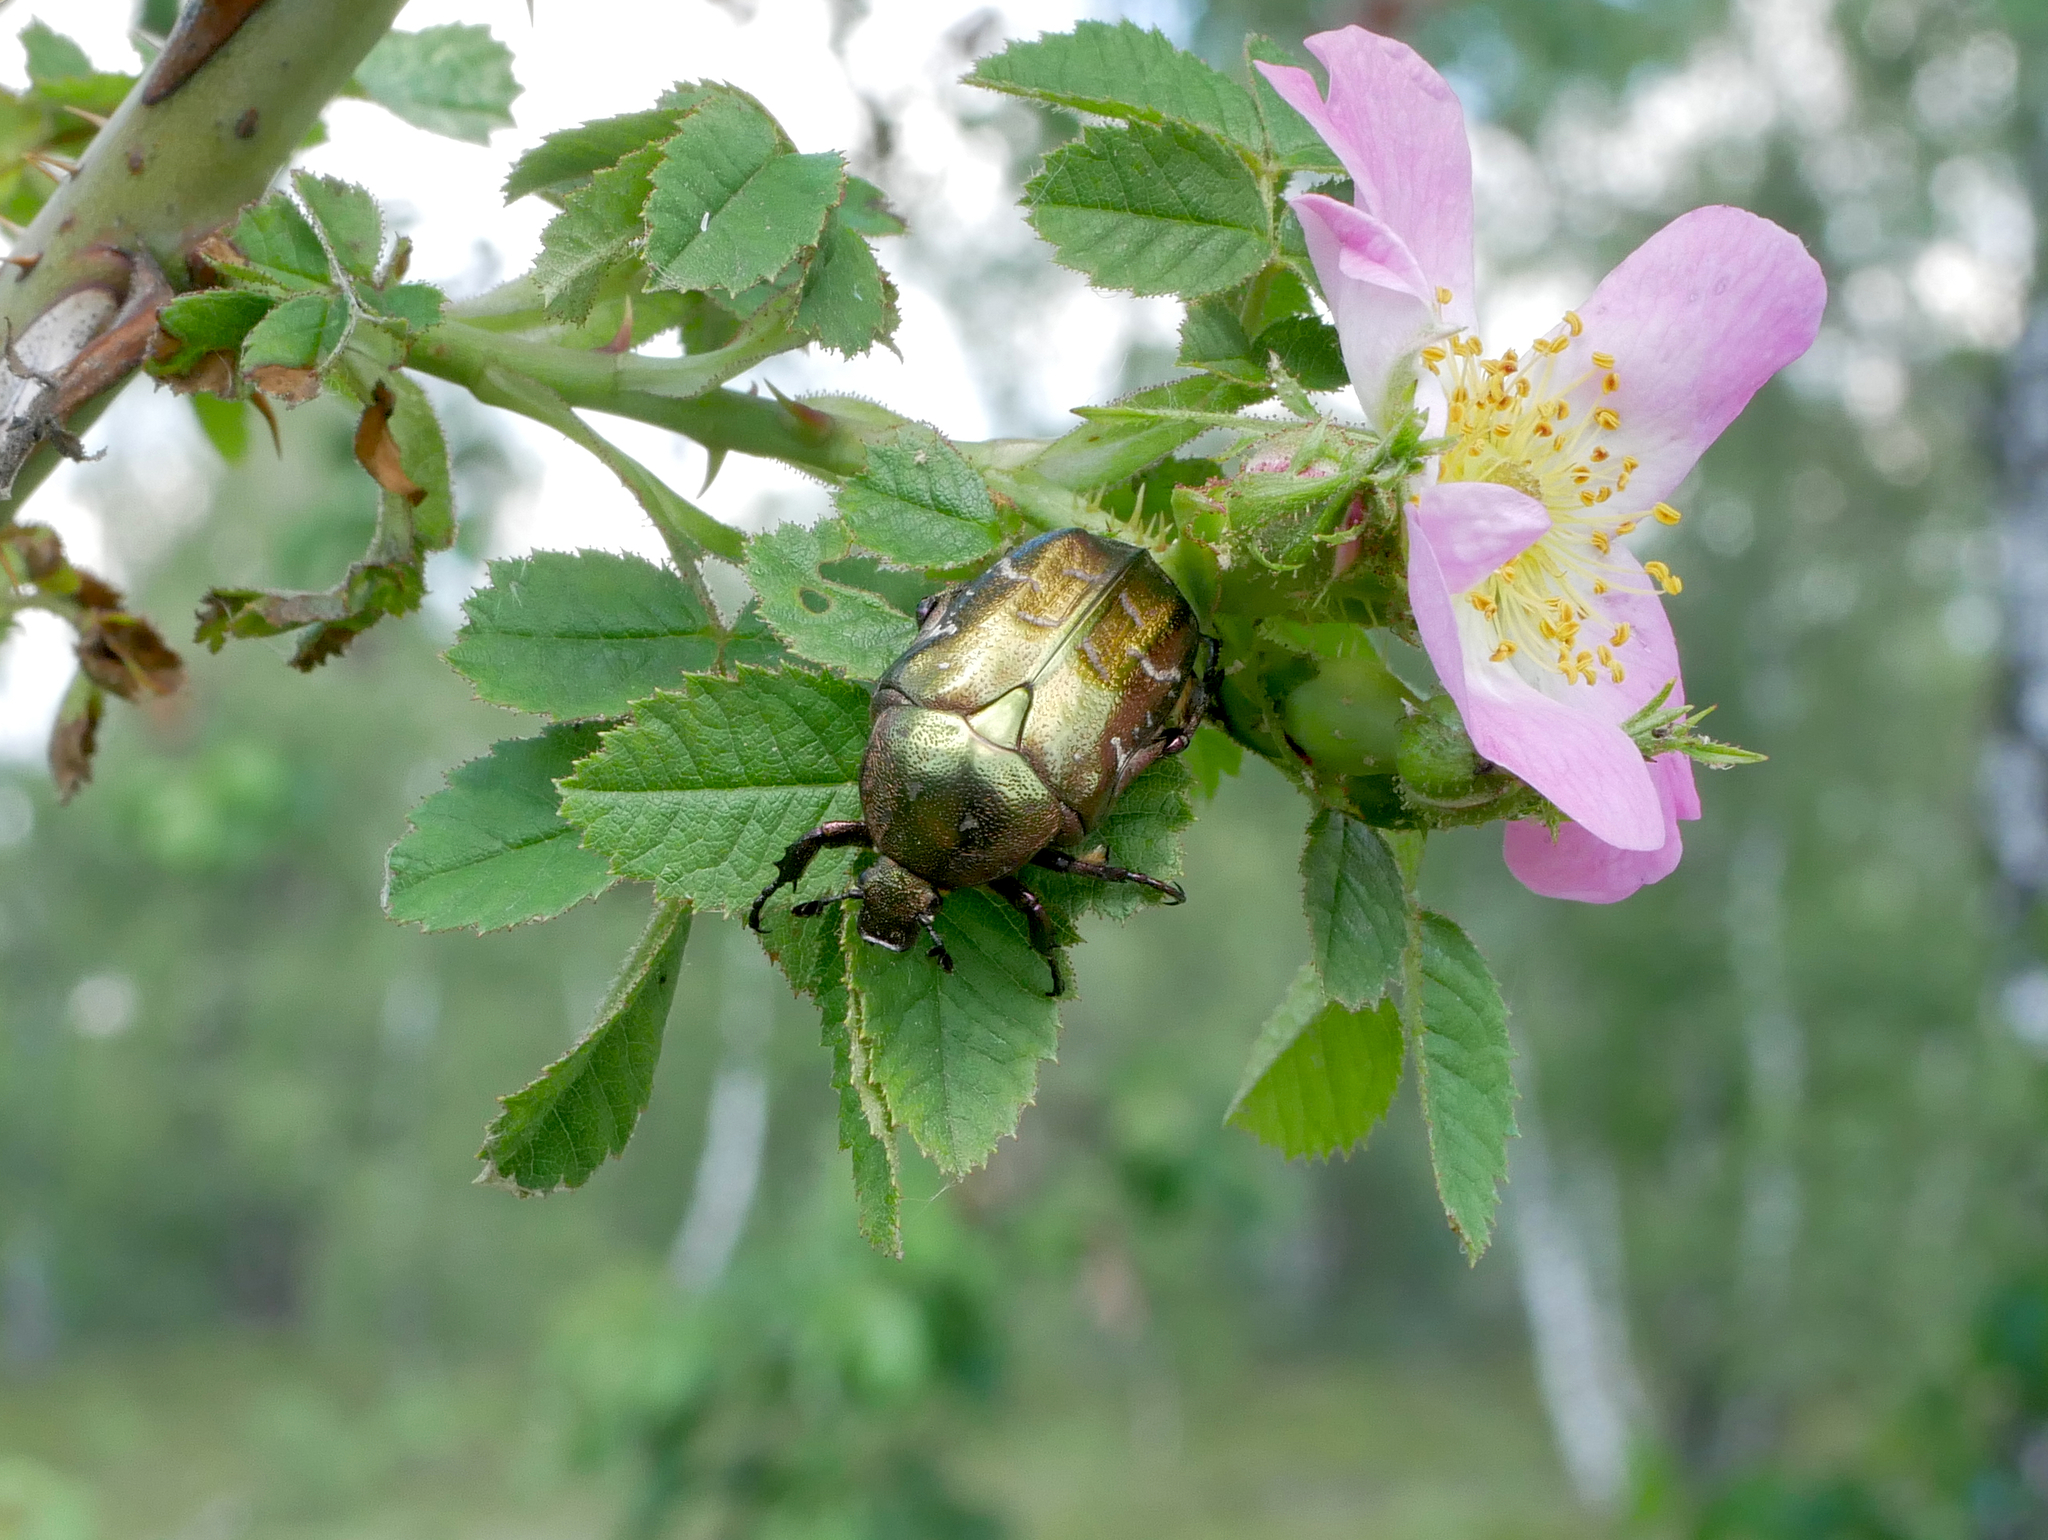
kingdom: Animalia
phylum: Arthropoda
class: Insecta
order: Coleoptera
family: Scarabaeidae
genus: Protaetia
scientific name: Protaetia cuprea
